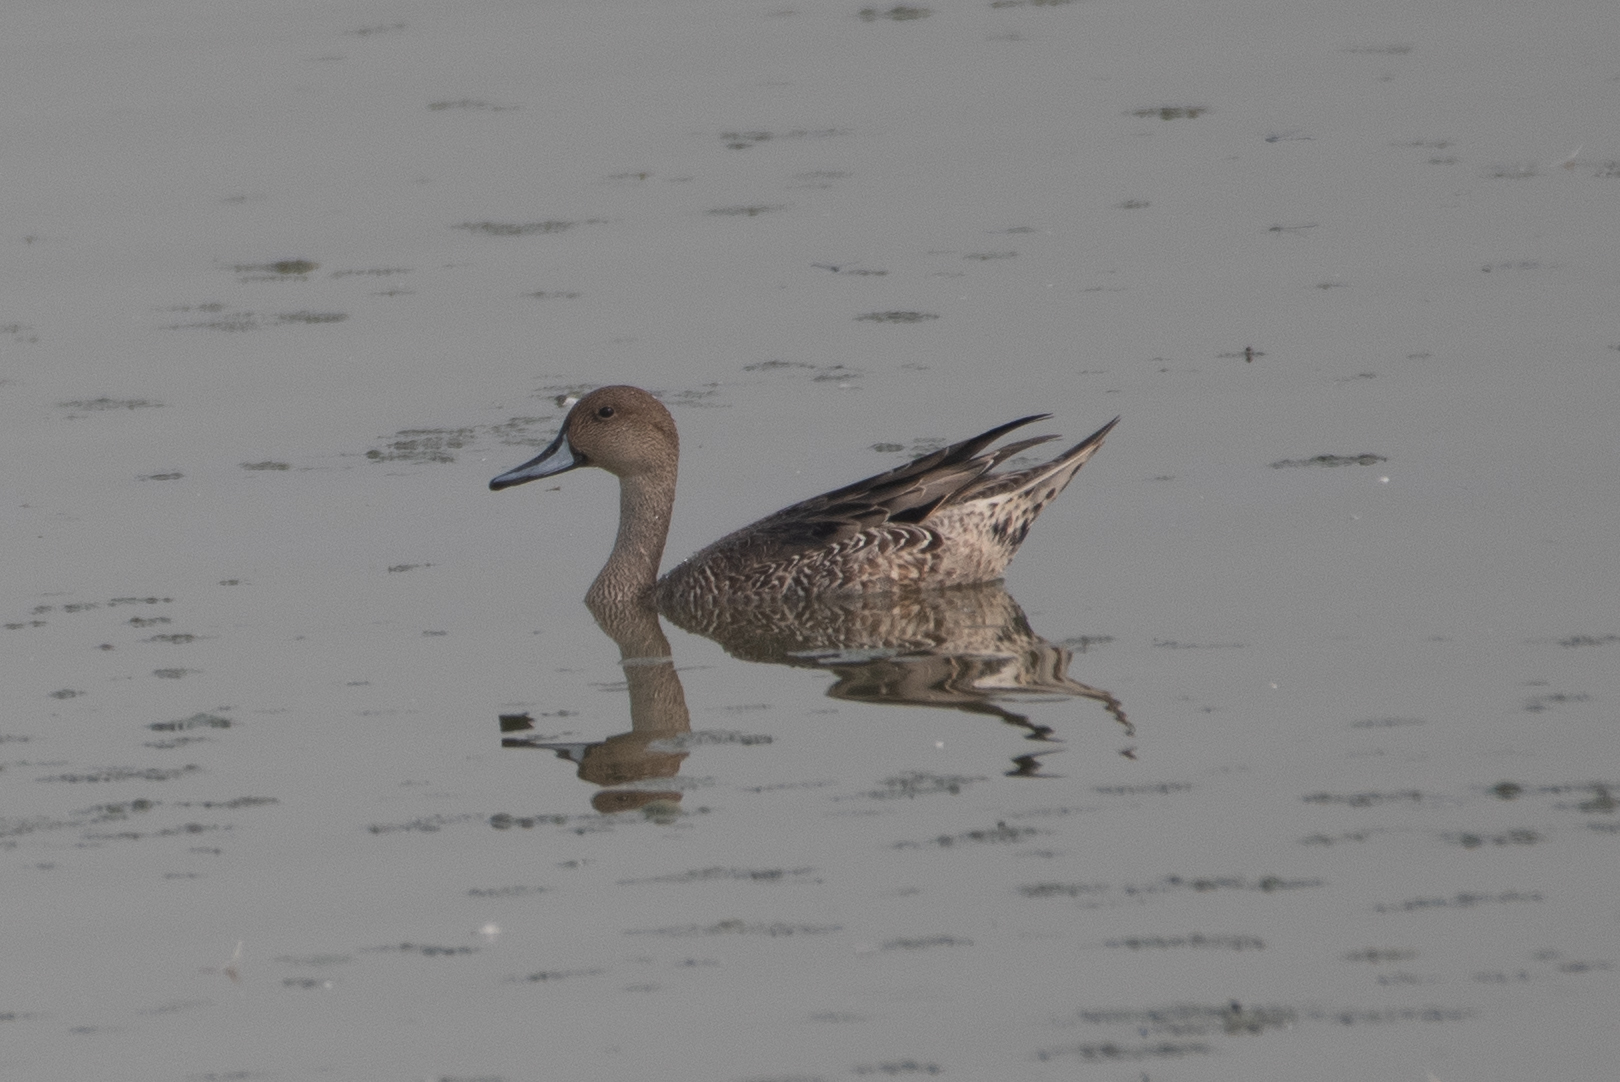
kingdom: Animalia
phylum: Chordata
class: Aves
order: Anseriformes
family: Anatidae
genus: Anas
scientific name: Anas acuta
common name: Northern pintail
